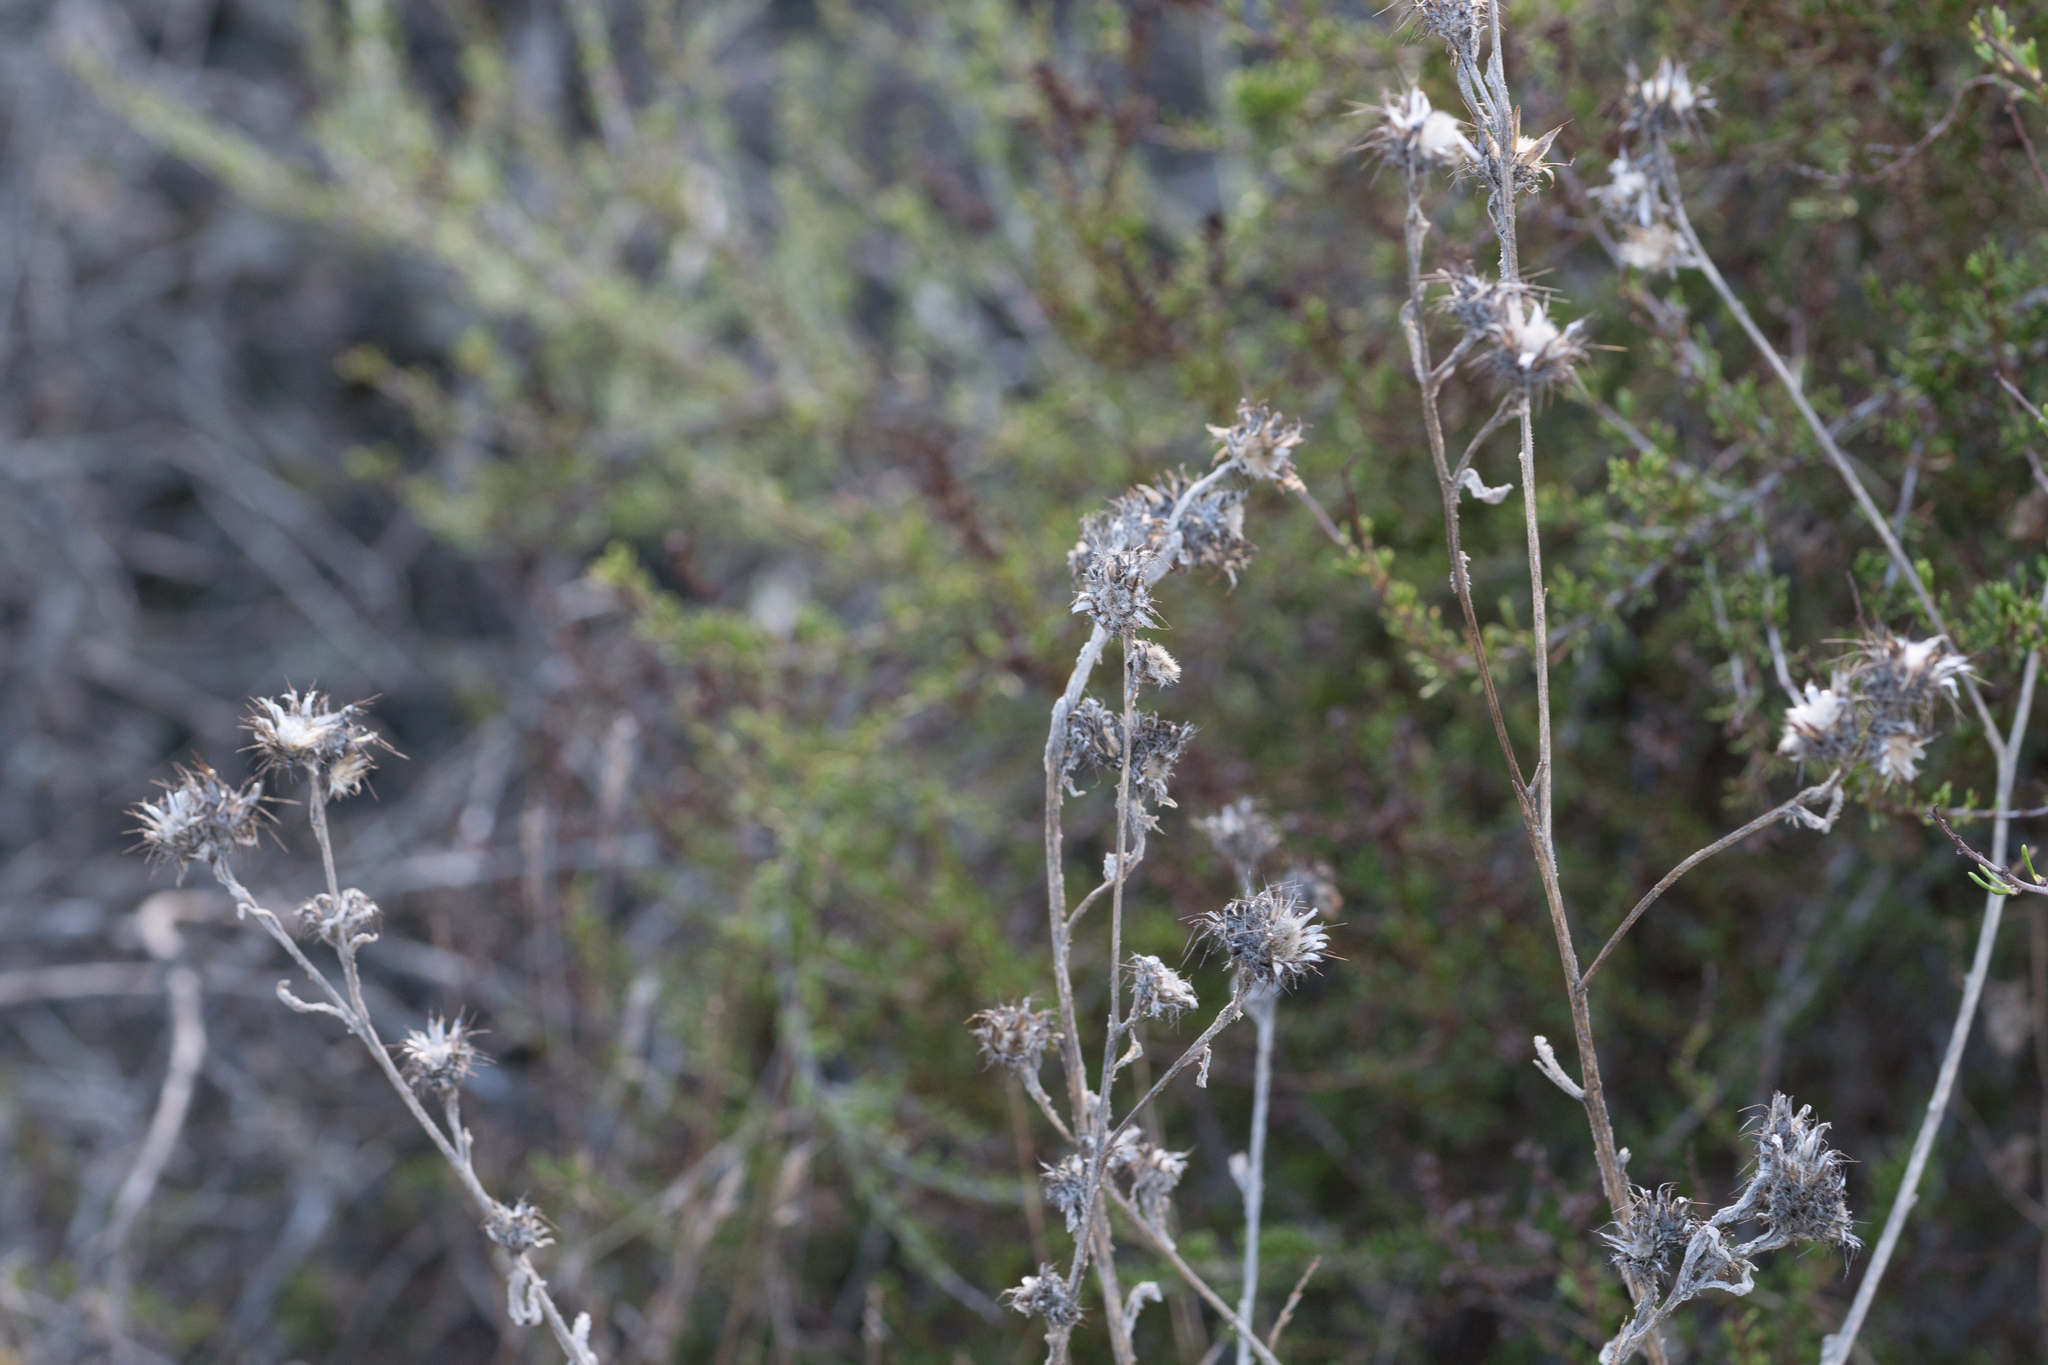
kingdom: Plantae
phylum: Tracheophyta
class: Magnoliopsida
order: Asterales
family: Asteraceae
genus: Centaurea
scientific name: Centaurea melitensis
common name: Maltese star-thistle
